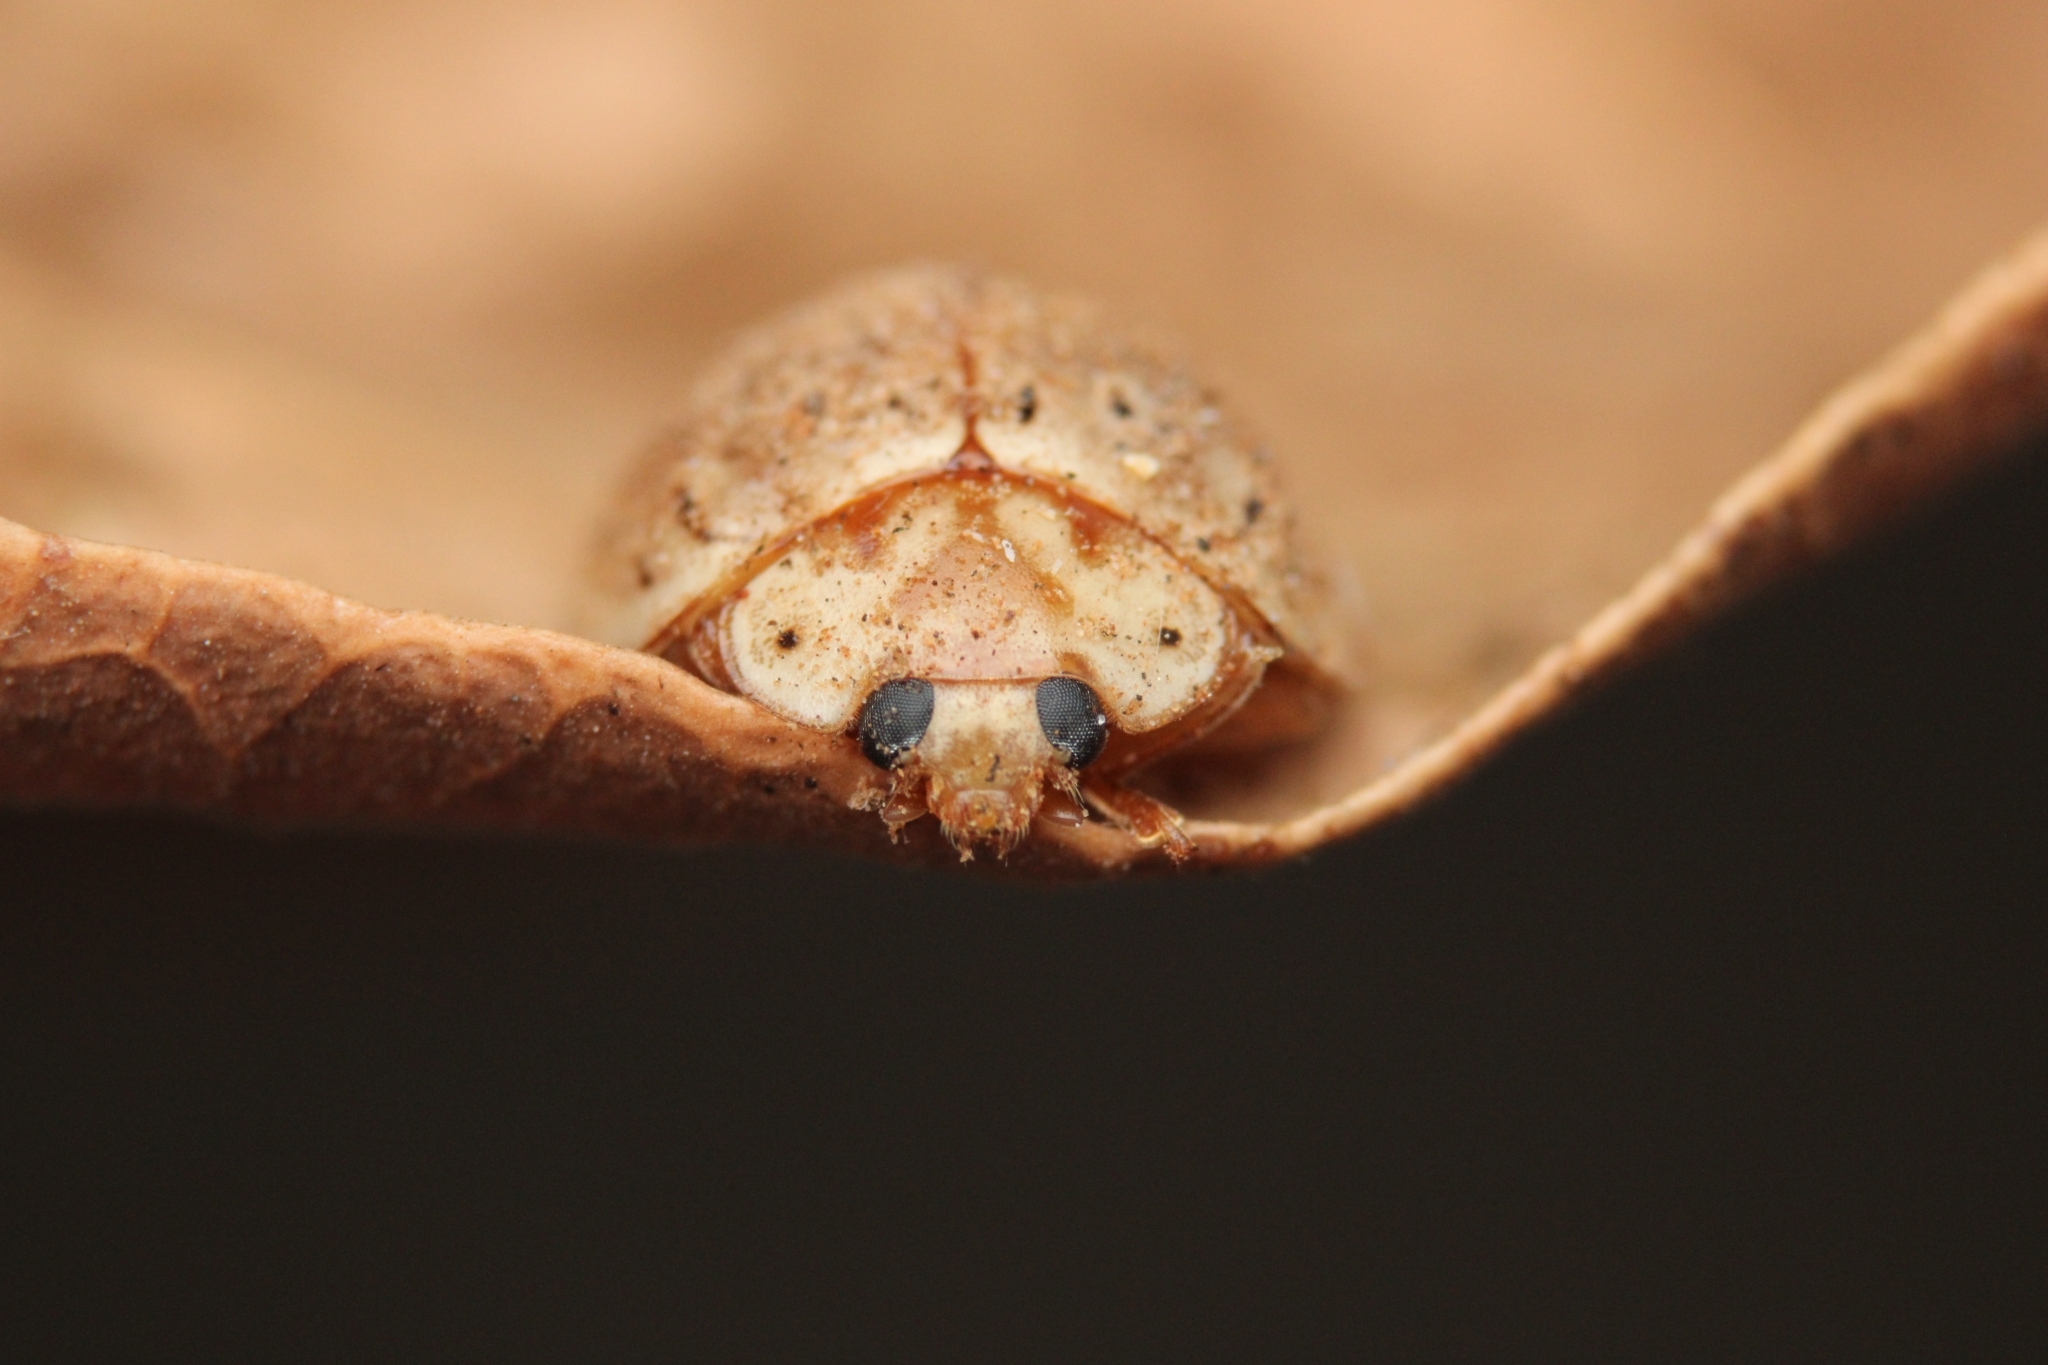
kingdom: Animalia
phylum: Arthropoda
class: Insecta
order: Coleoptera
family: Coccinellidae
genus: Harmonia
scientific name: Harmonia
